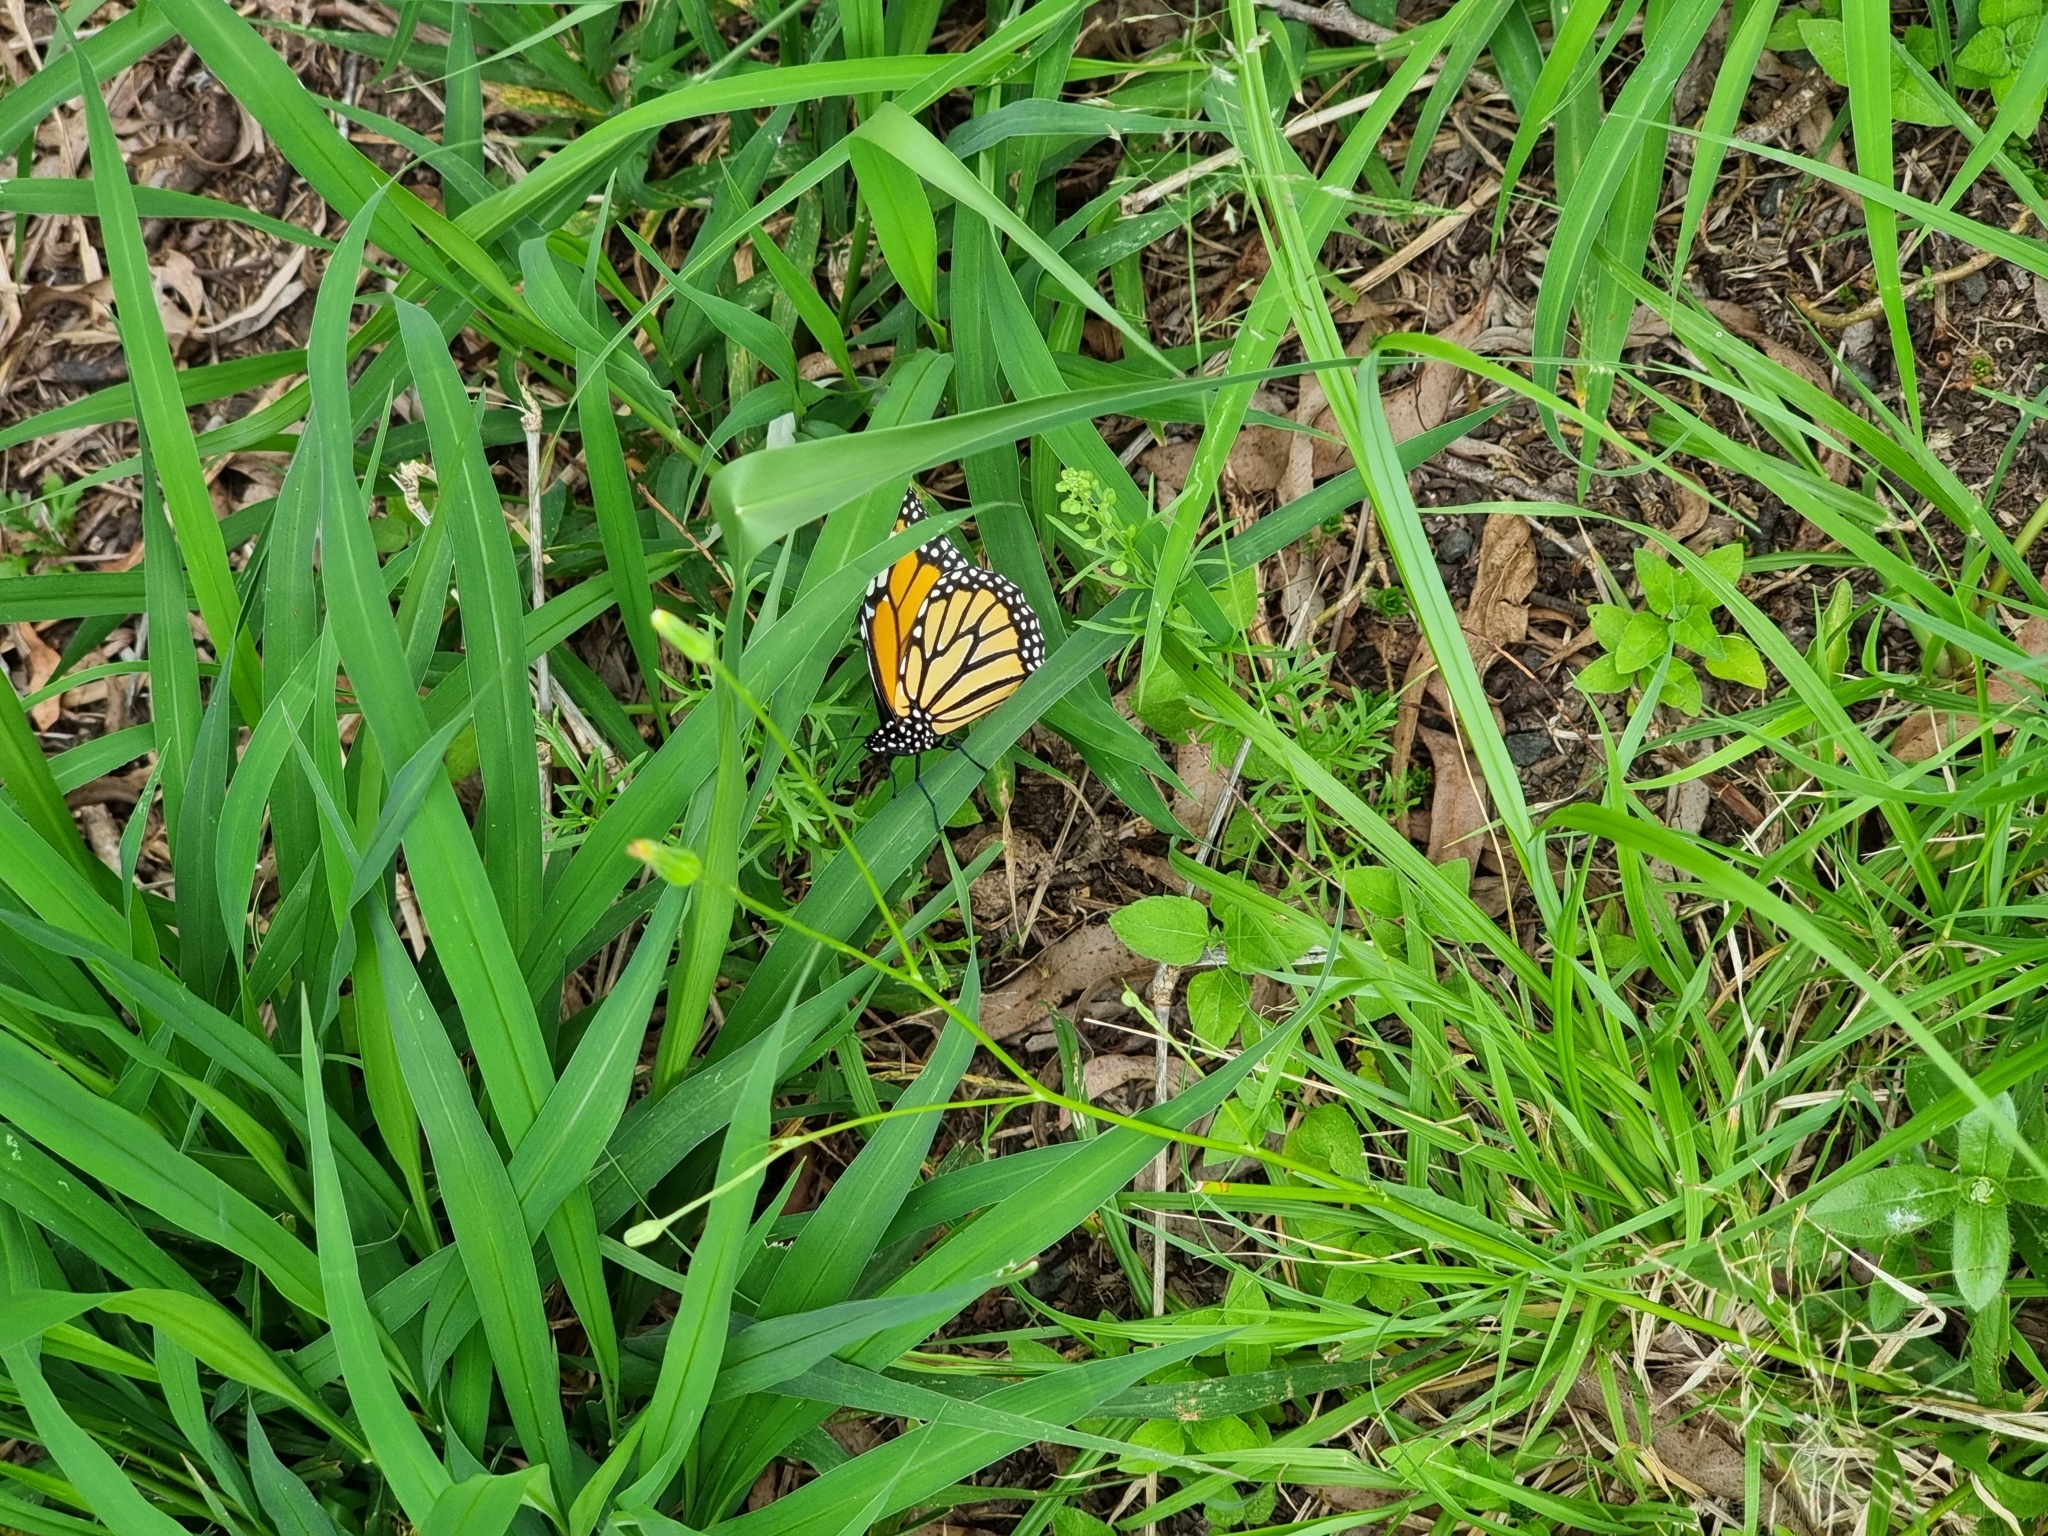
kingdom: Animalia
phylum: Arthropoda
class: Insecta
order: Lepidoptera
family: Nymphalidae
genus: Danaus
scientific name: Danaus plexippus
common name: Monarch
